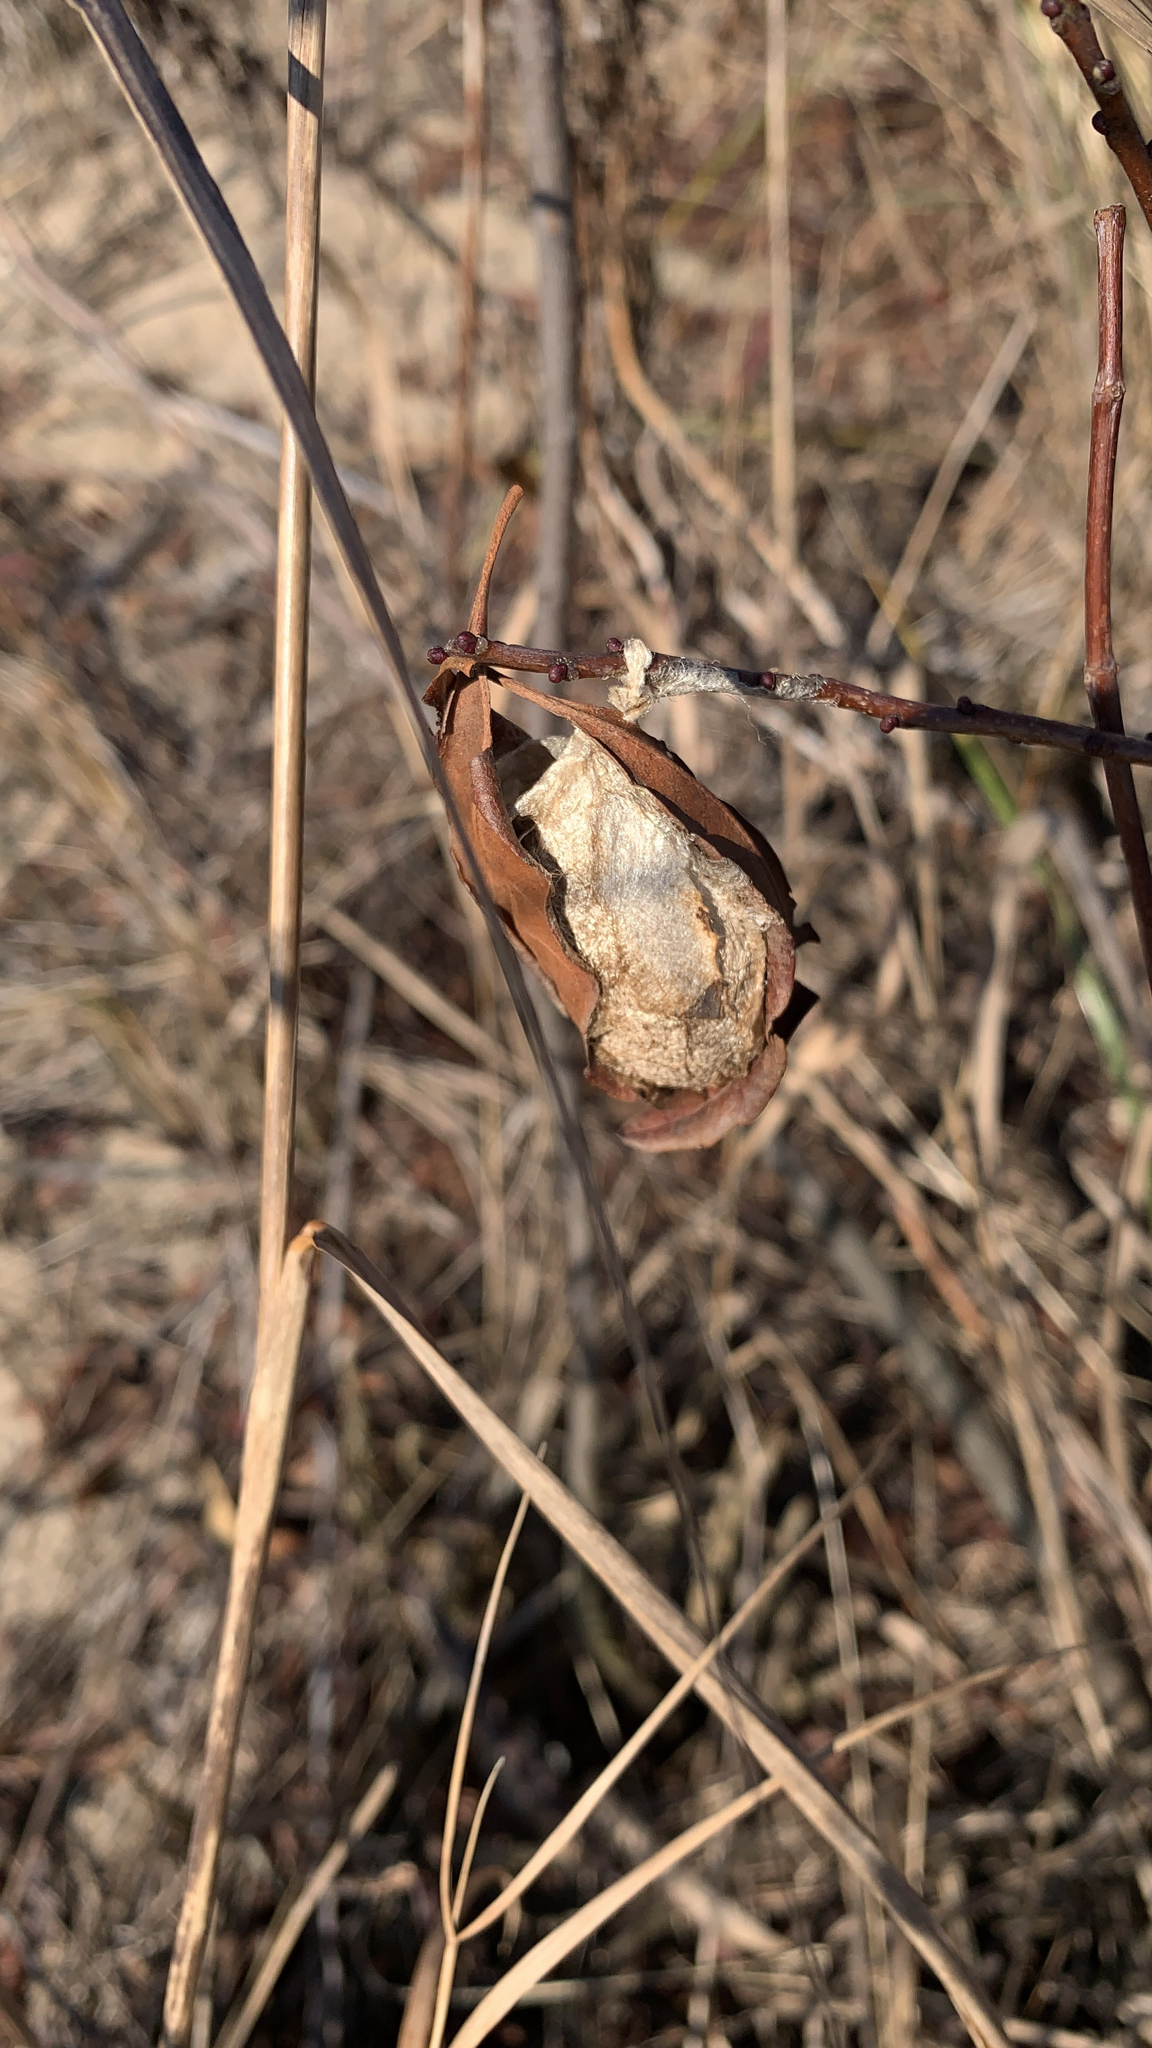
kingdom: Animalia
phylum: Arthropoda
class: Insecta
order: Lepidoptera
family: Saturniidae
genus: Antheraea
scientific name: Antheraea polyphemus
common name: Polyphemus moth
